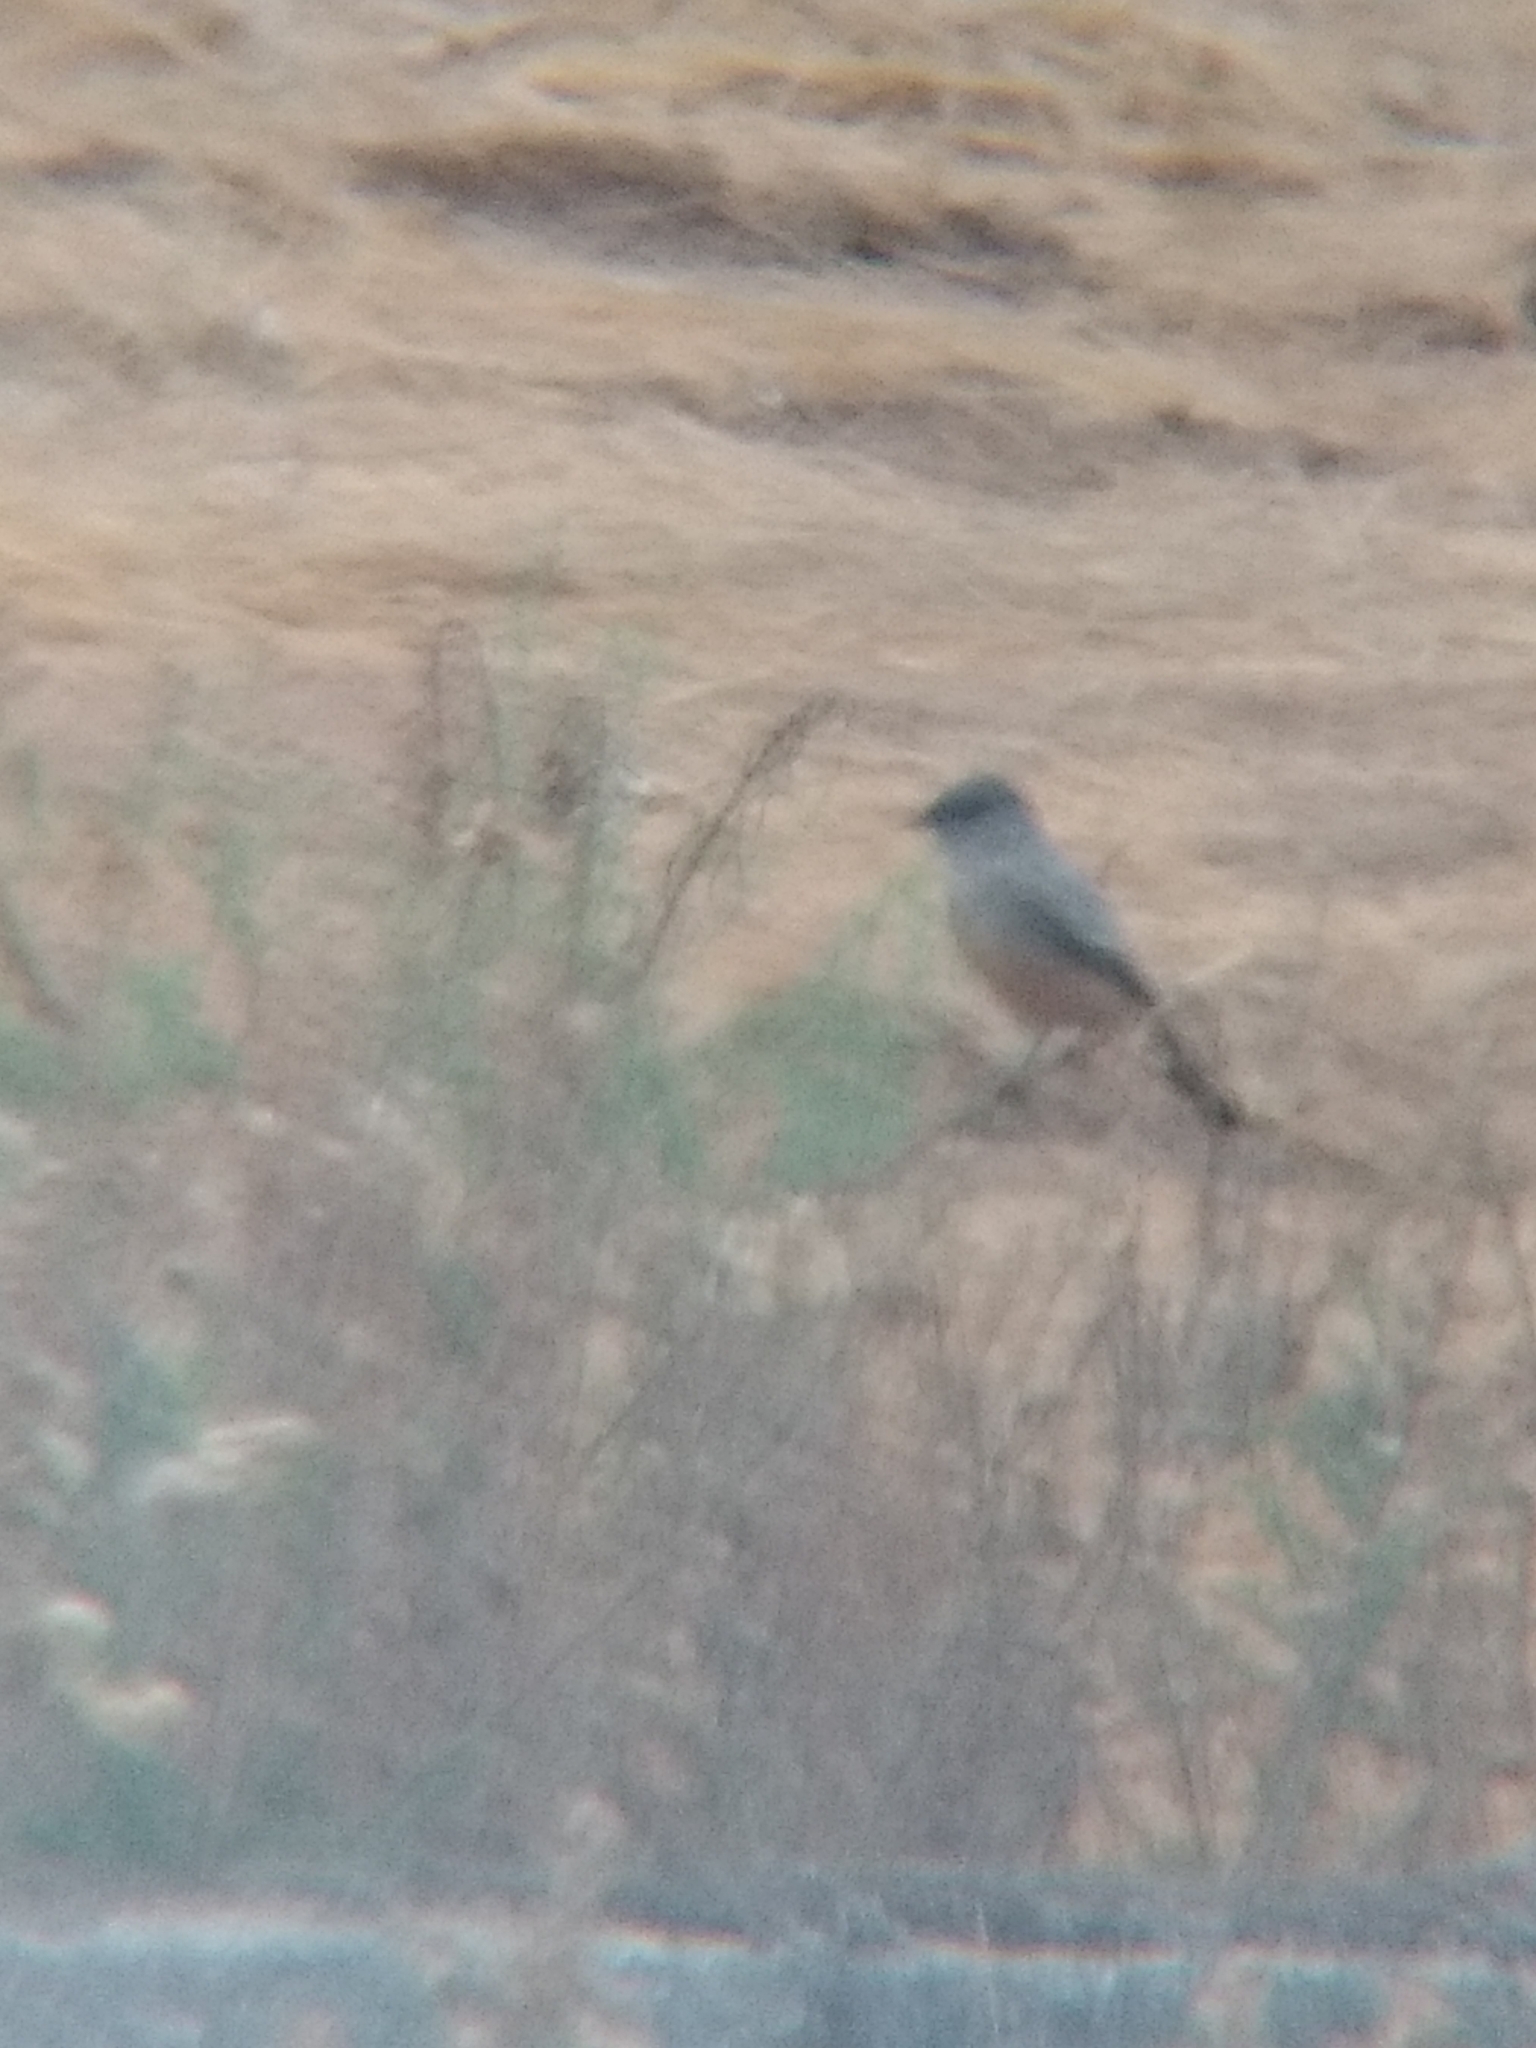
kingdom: Animalia
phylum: Chordata
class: Aves
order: Passeriformes
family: Tyrannidae
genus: Sayornis
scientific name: Sayornis saya
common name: Say's phoebe
